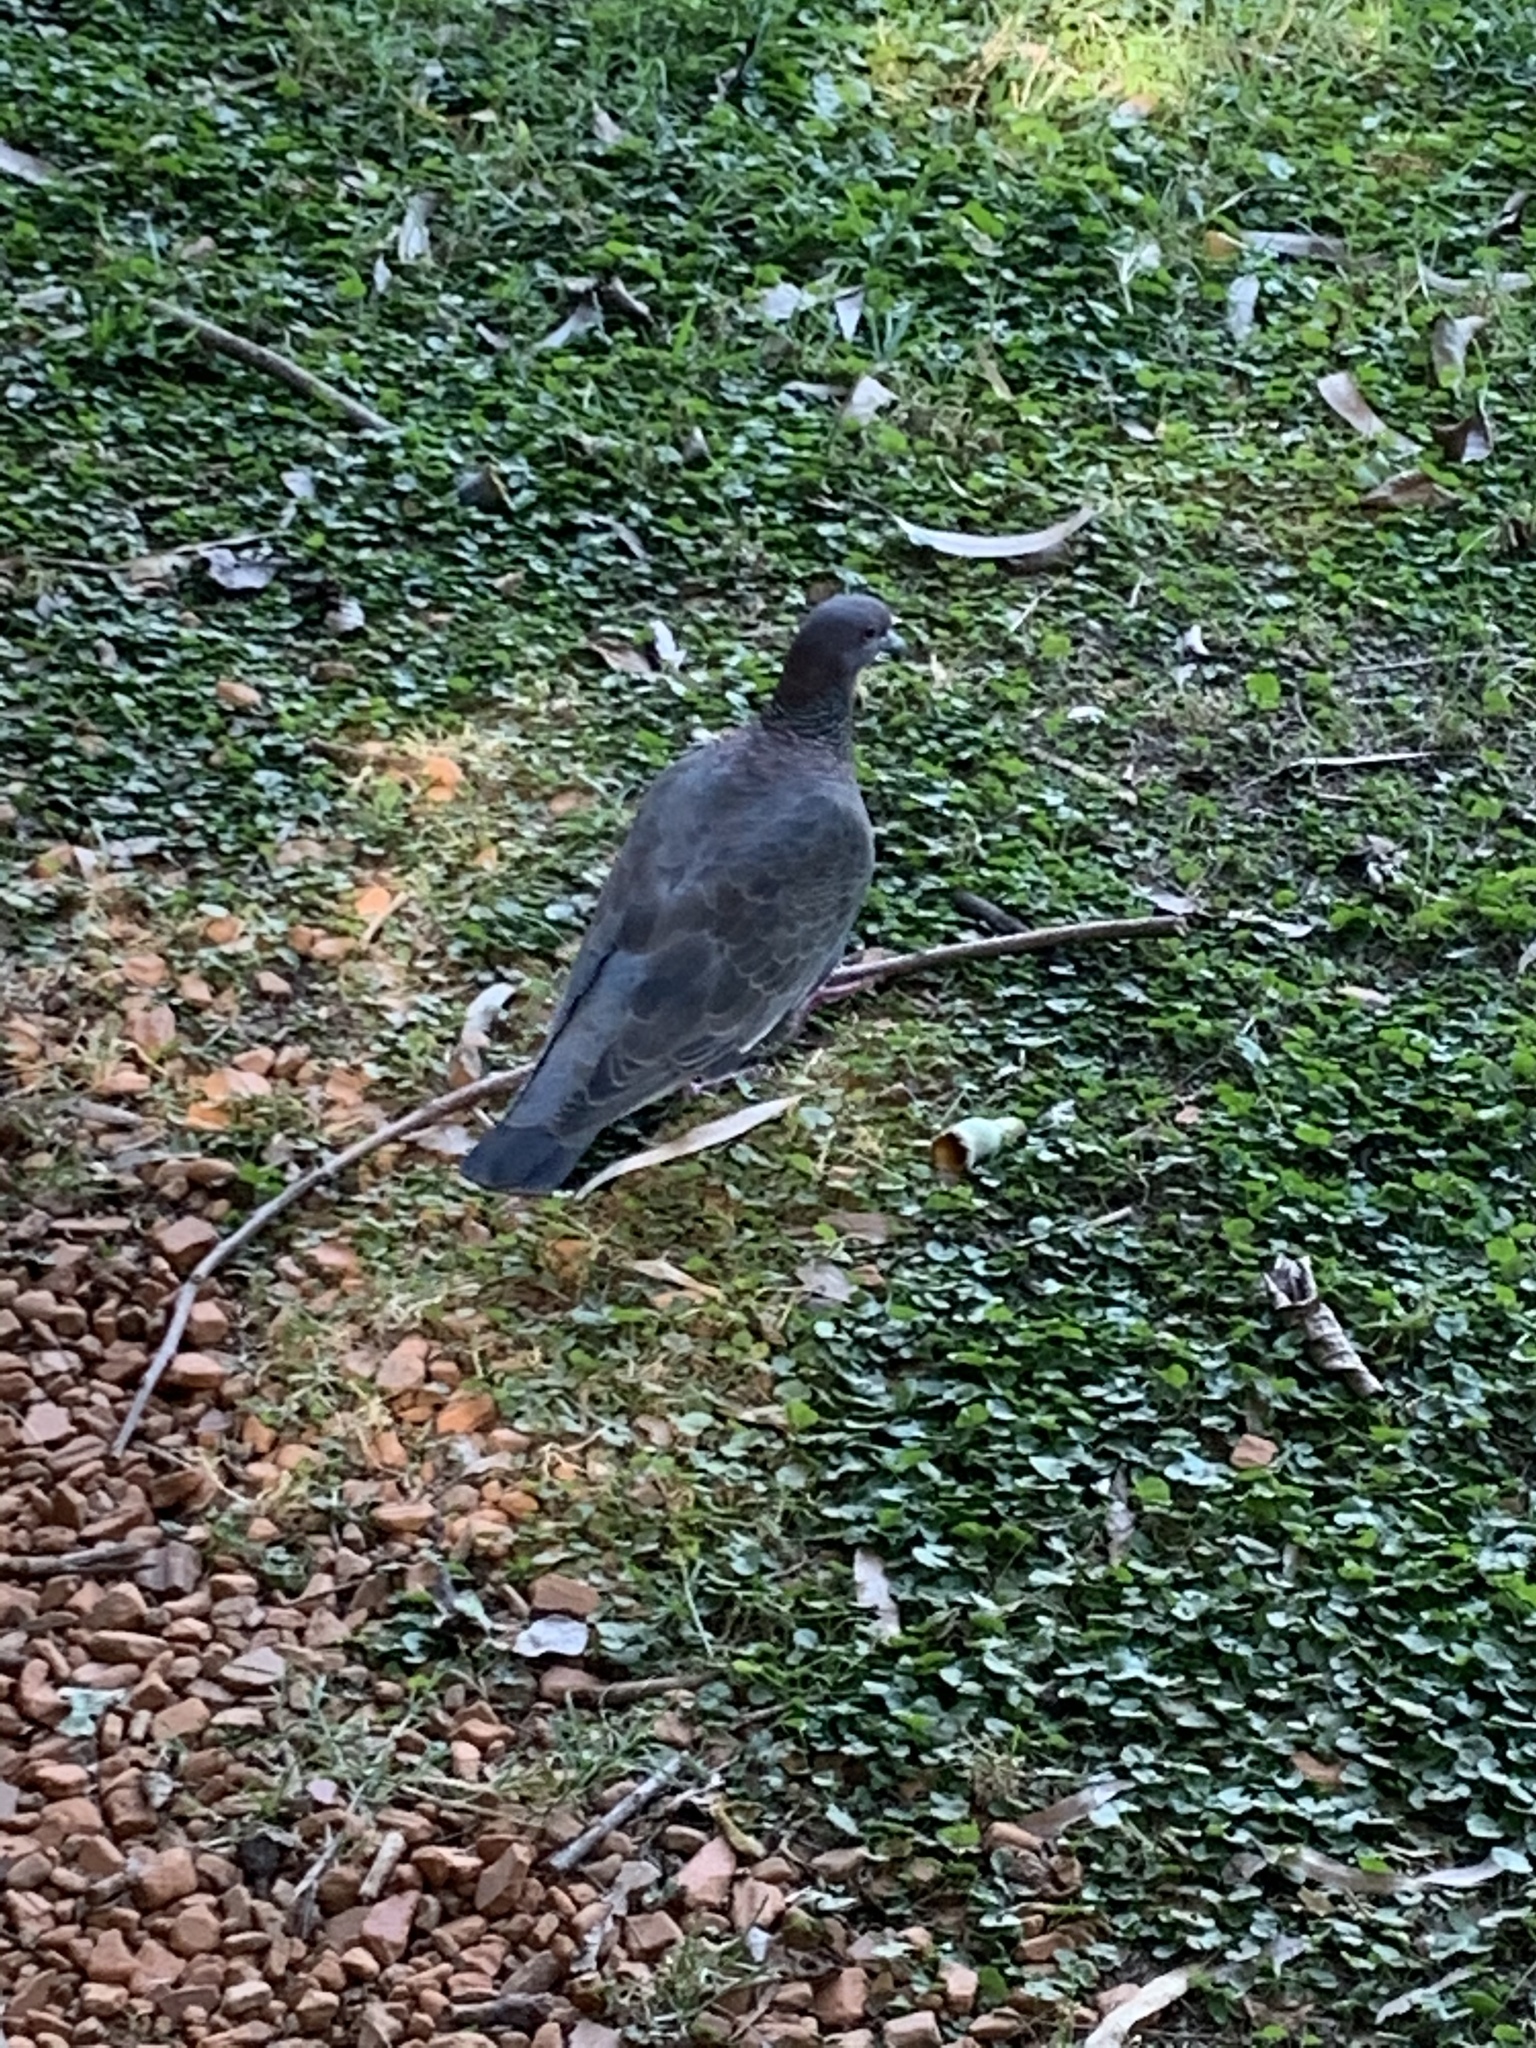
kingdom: Animalia
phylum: Chordata
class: Aves
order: Columbiformes
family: Columbidae
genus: Patagioenas
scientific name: Patagioenas picazuro
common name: Picazuro pigeon
